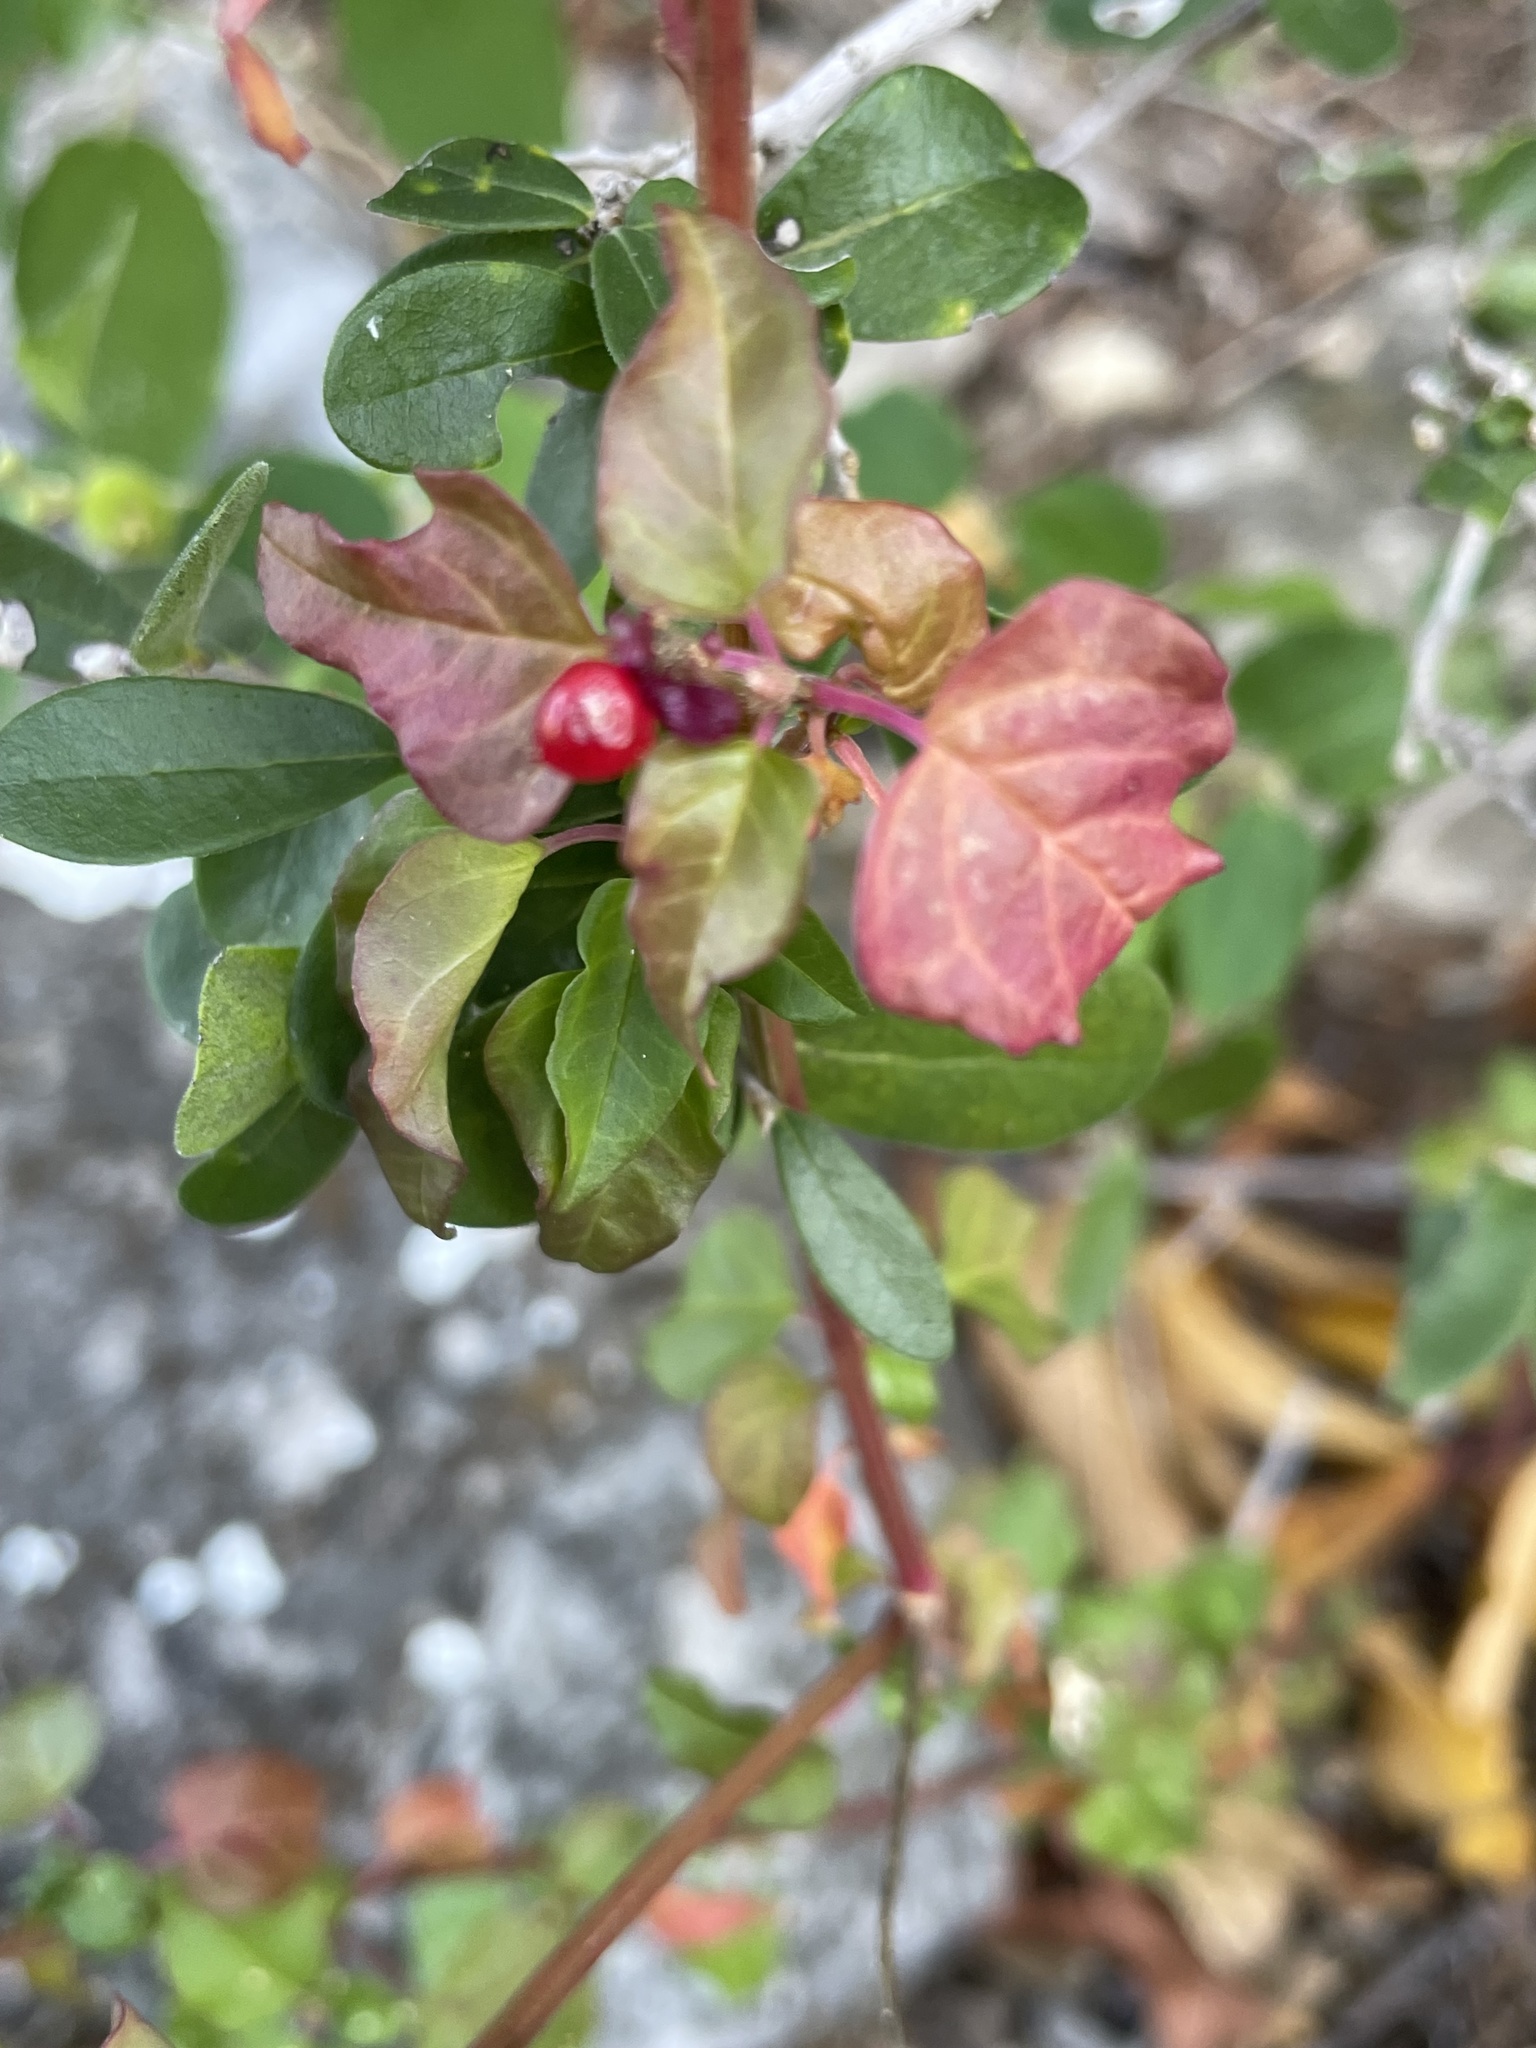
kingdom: Plantae
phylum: Tracheophyta
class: Magnoliopsida
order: Caryophyllales
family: Phytolaccaceae
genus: Rivina
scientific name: Rivina humilis
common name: Rougeplant
